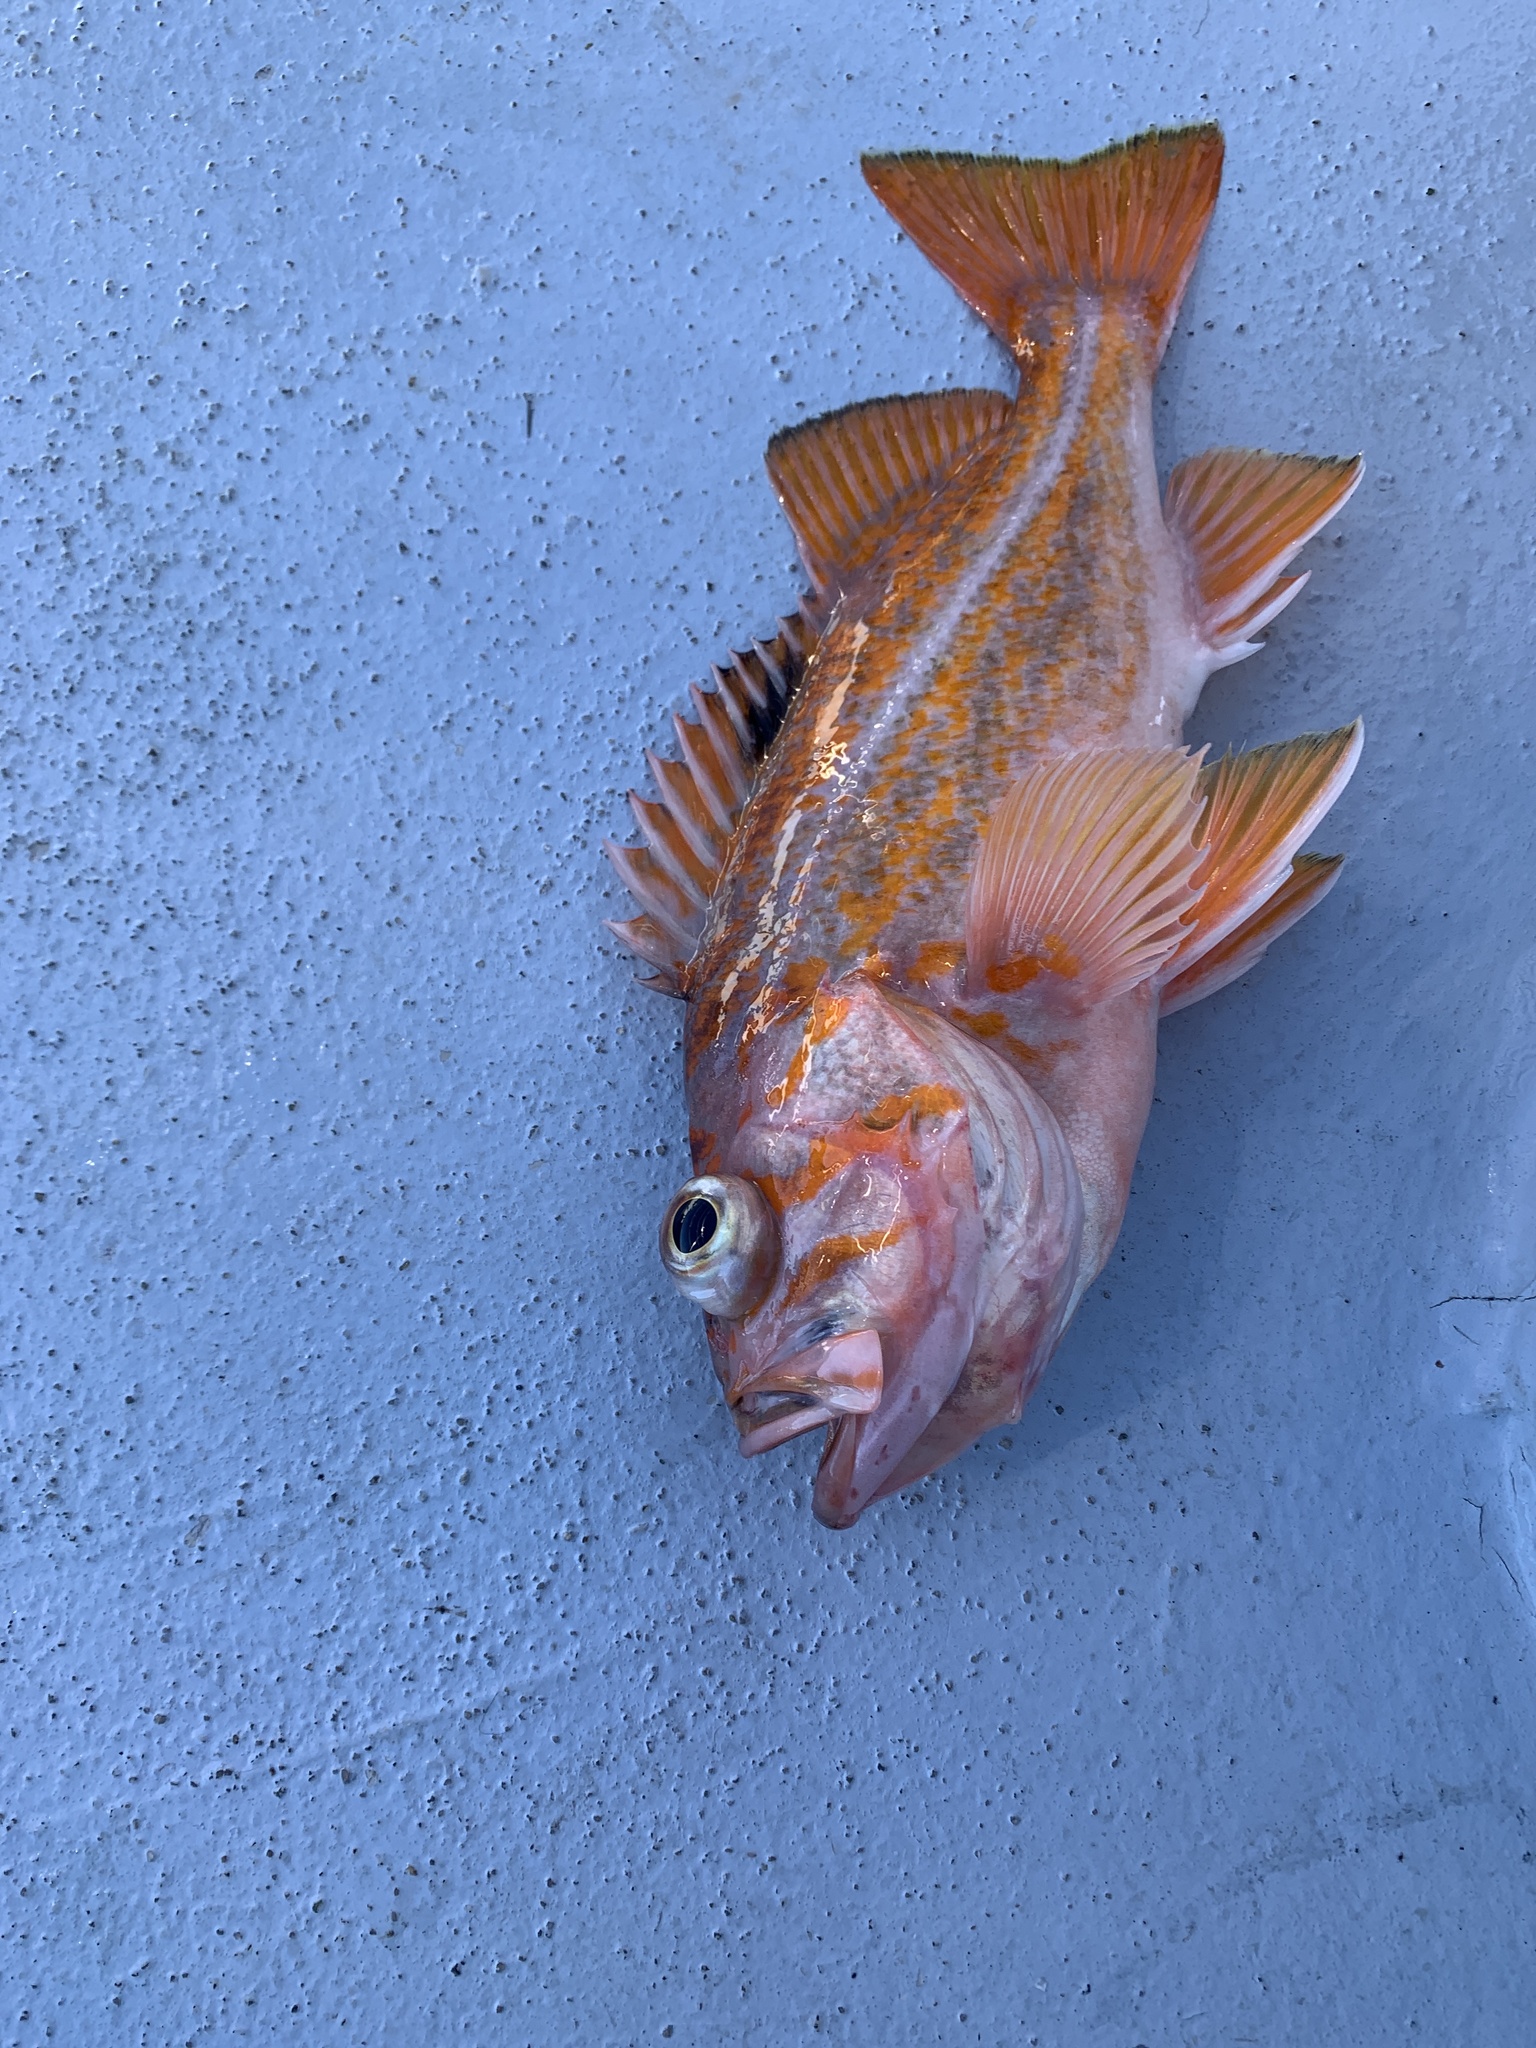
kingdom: Animalia
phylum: Chordata
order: Scorpaeniformes
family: Sebastidae
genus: Sebastes
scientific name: Sebastes pinniger
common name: Canary rockfish
